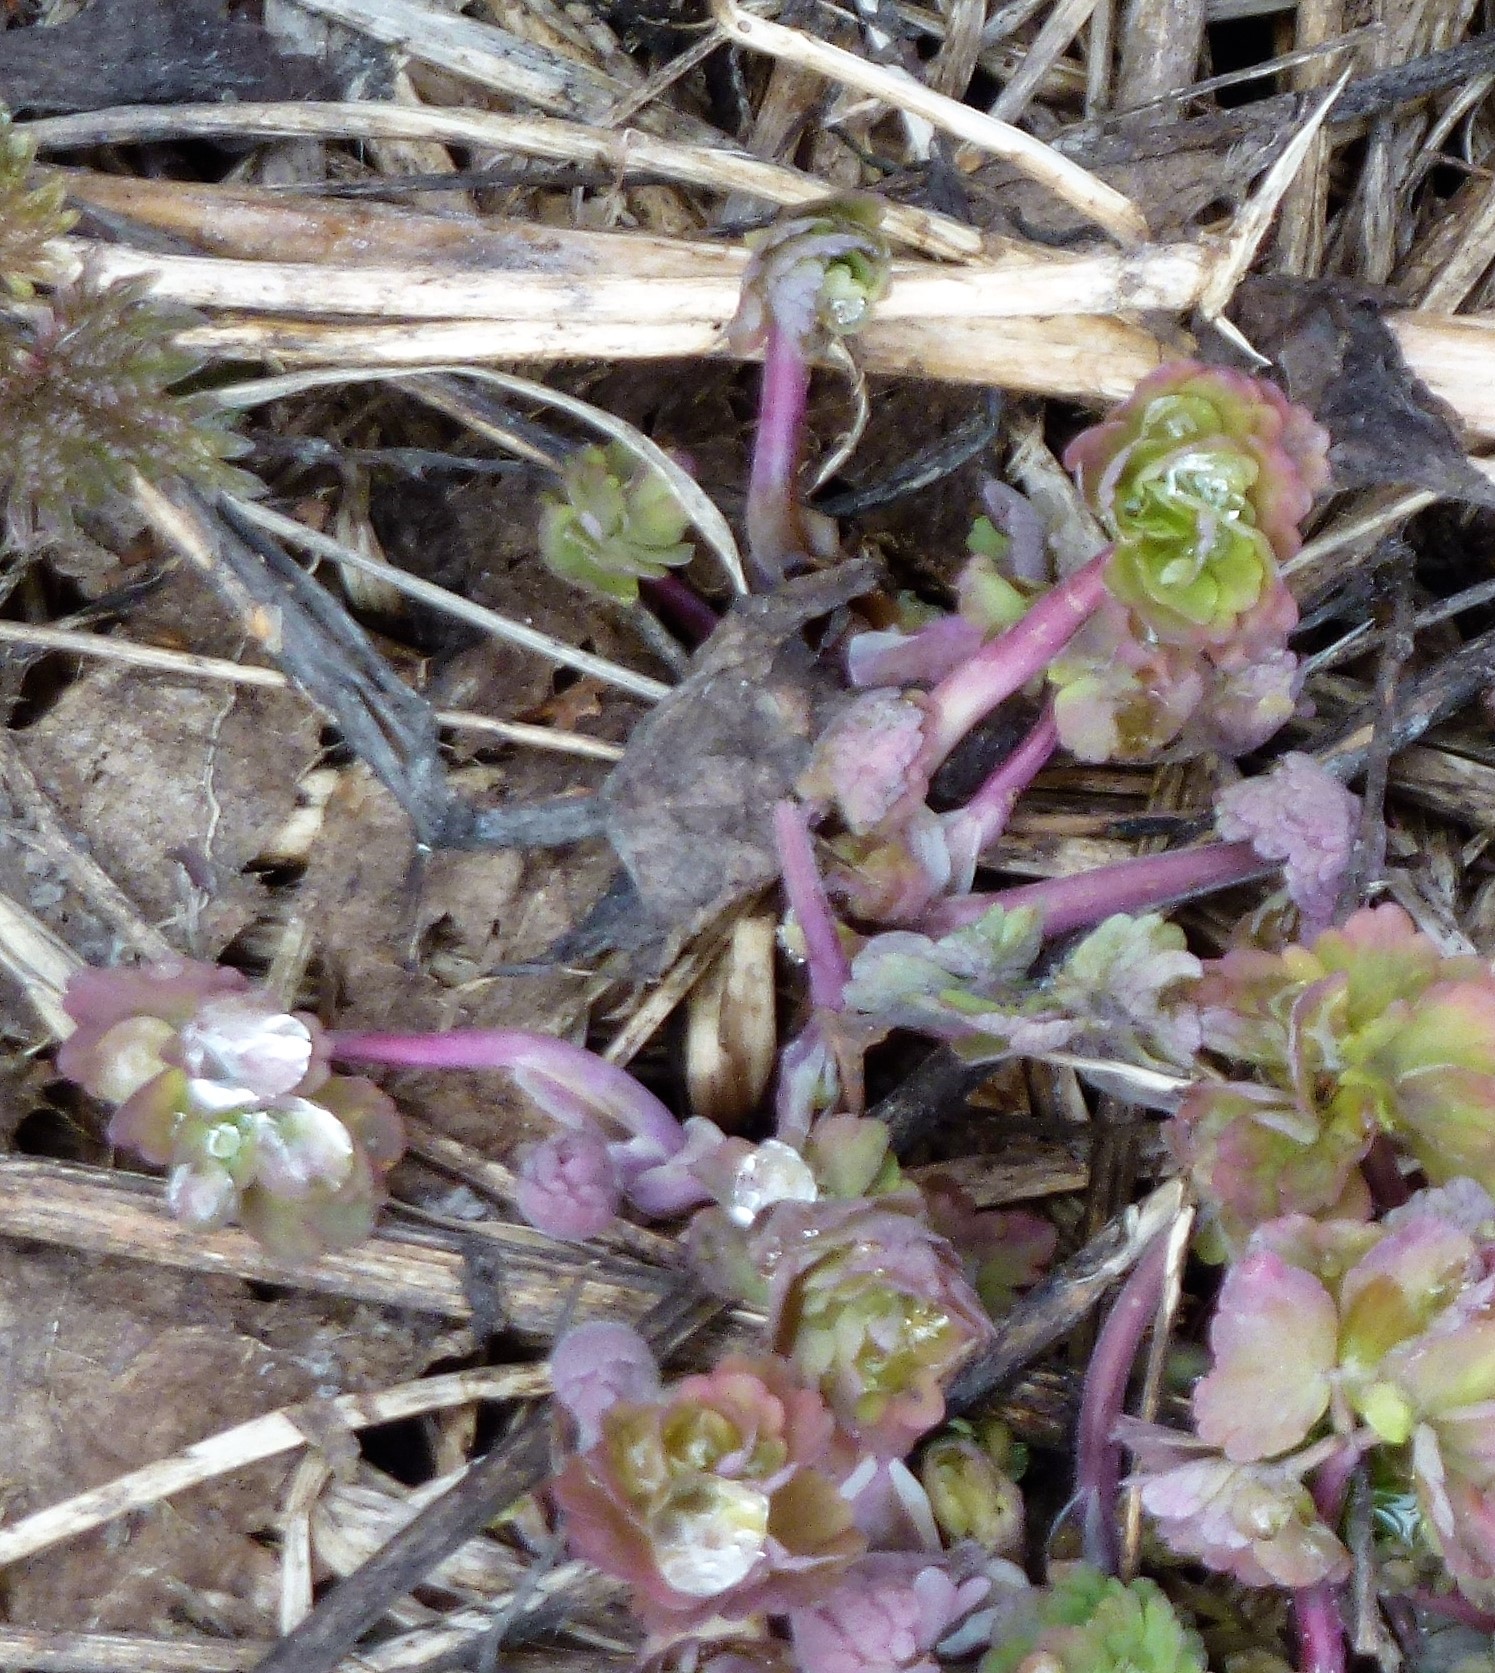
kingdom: Plantae
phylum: Tracheophyta
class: Magnoliopsida
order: Ranunculales
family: Ranunculaceae
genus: Aquilegia
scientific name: Aquilegia vulgaris
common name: Columbine
